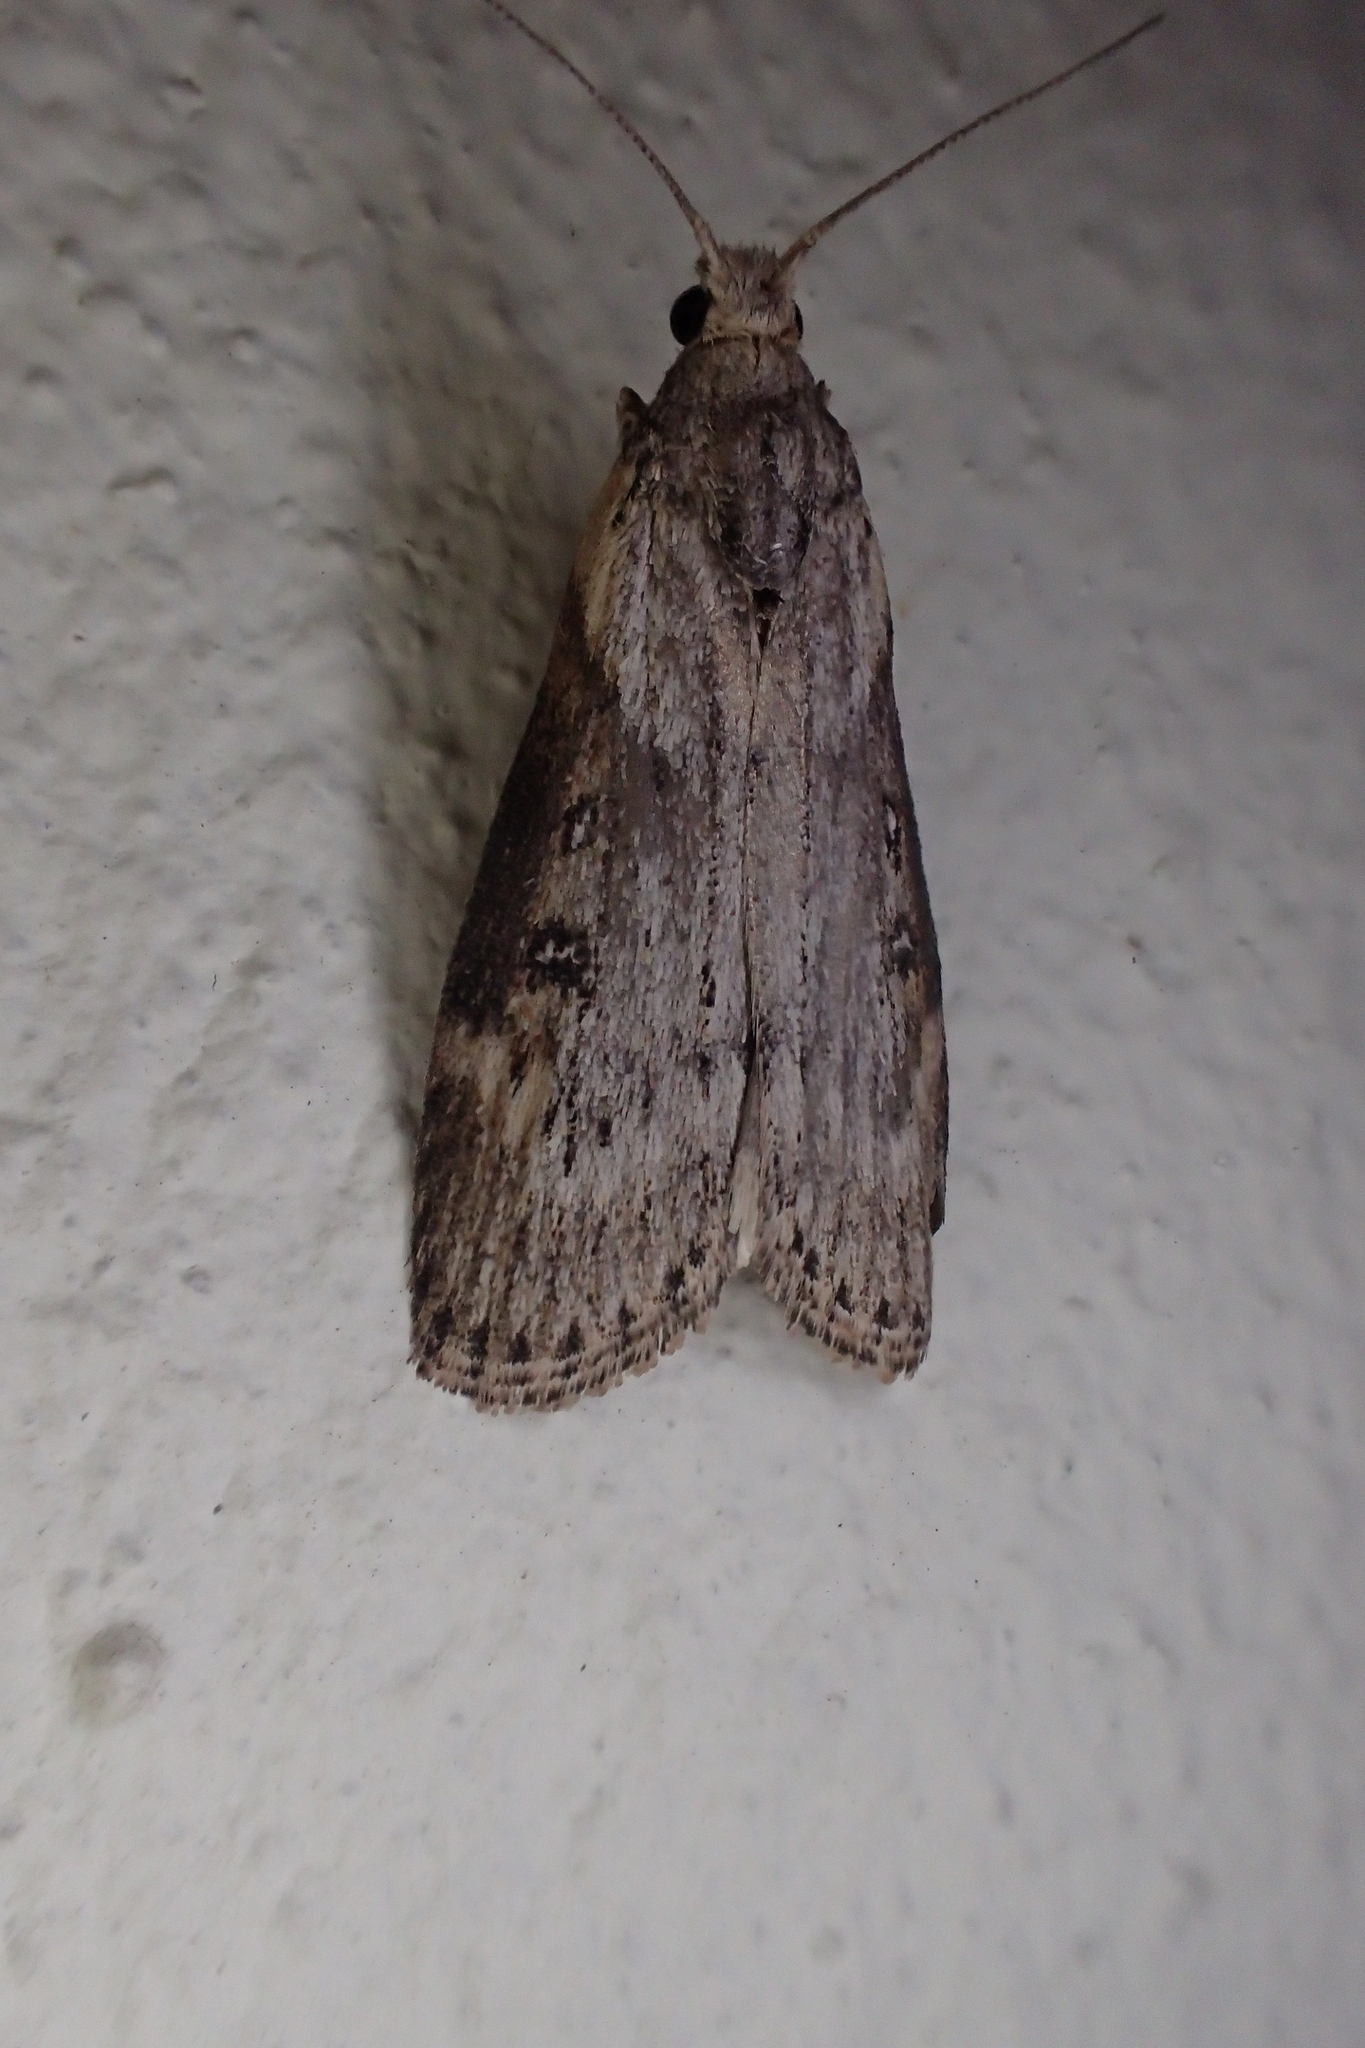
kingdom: Animalia
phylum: Arthropoda
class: Insecta
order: Lepidoptera
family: Pyralidae
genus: Lamoria
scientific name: Lamoria anella
